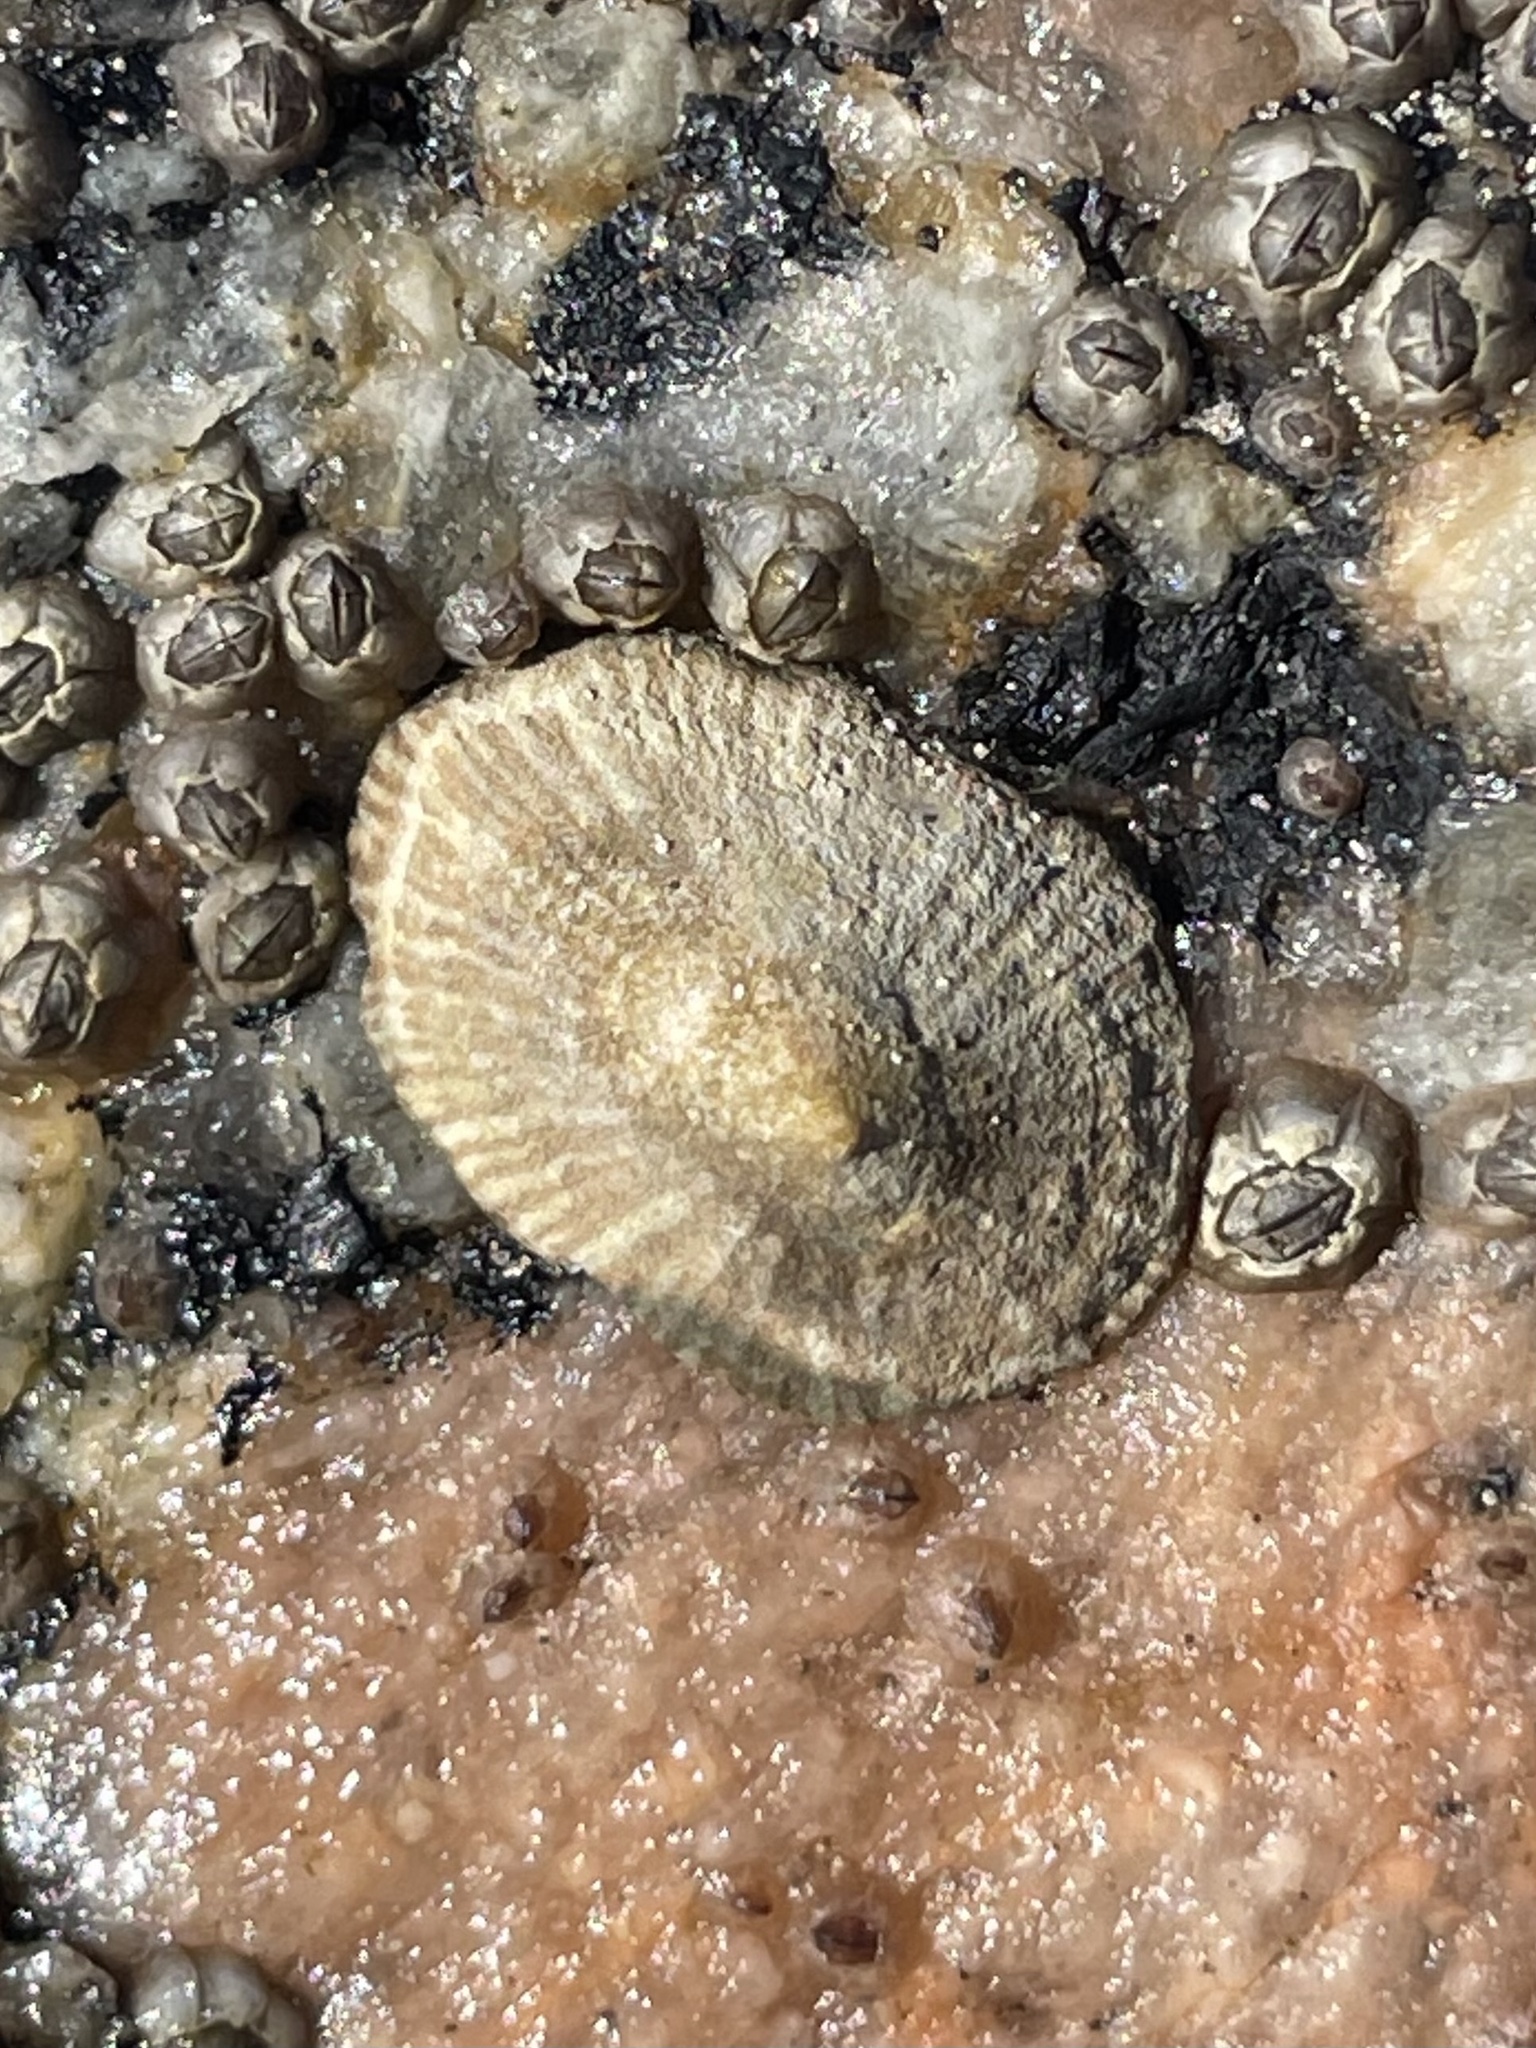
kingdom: Animalia
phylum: Mollusca
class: Gastropoda
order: Siphonariida
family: Siphonariidae
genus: Siphonaria
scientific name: Siphonaria naufragum
